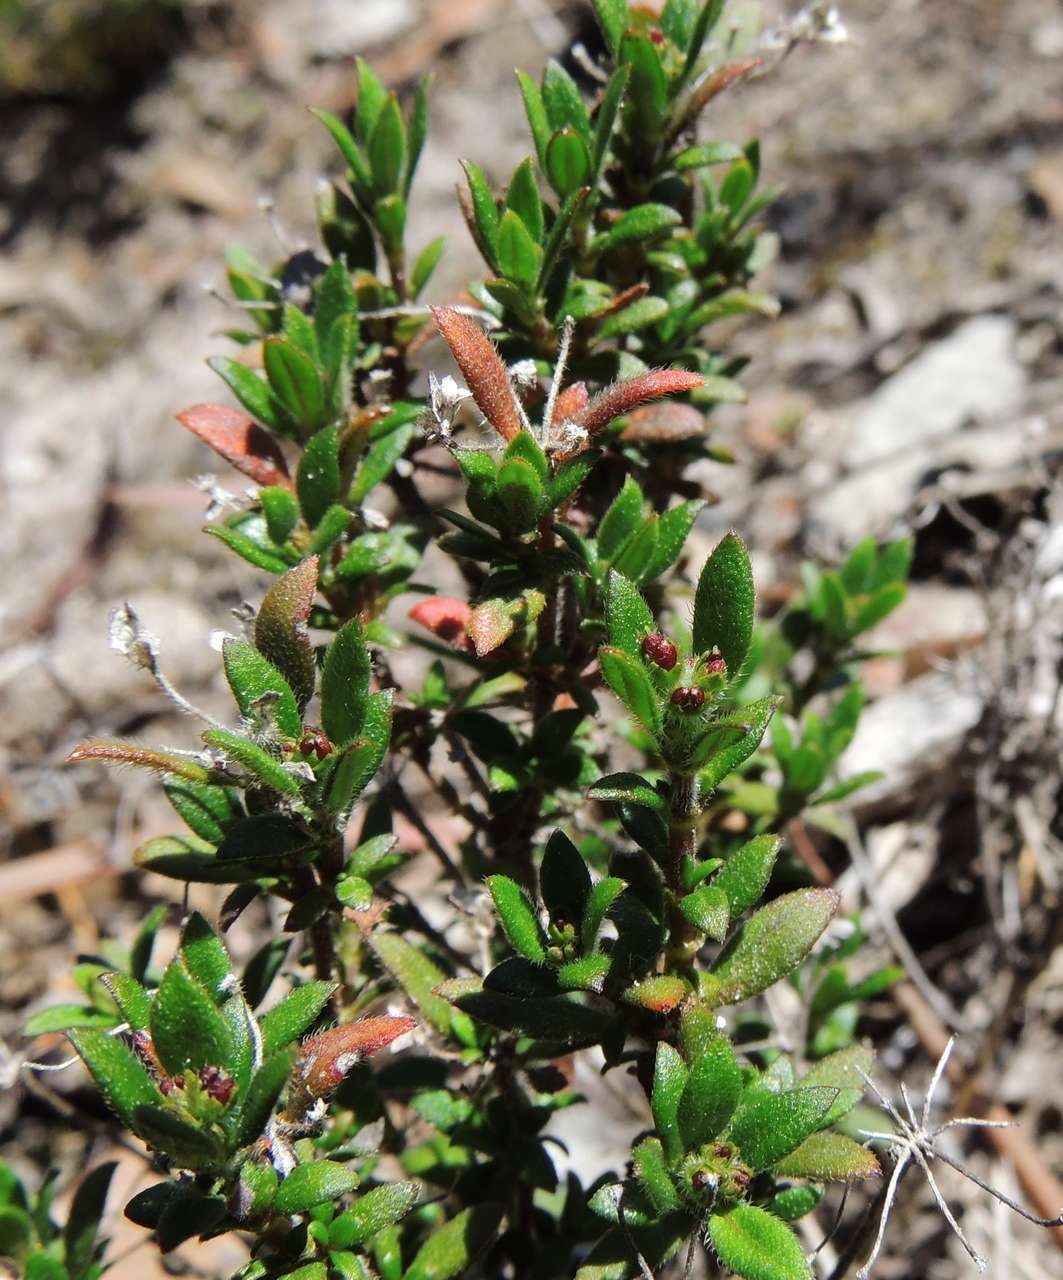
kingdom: Plantae
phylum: Tracheophyta
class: Magnoliopsida
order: Gentianales
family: Rubiaceae
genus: Pomax
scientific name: Pomax umbellata
